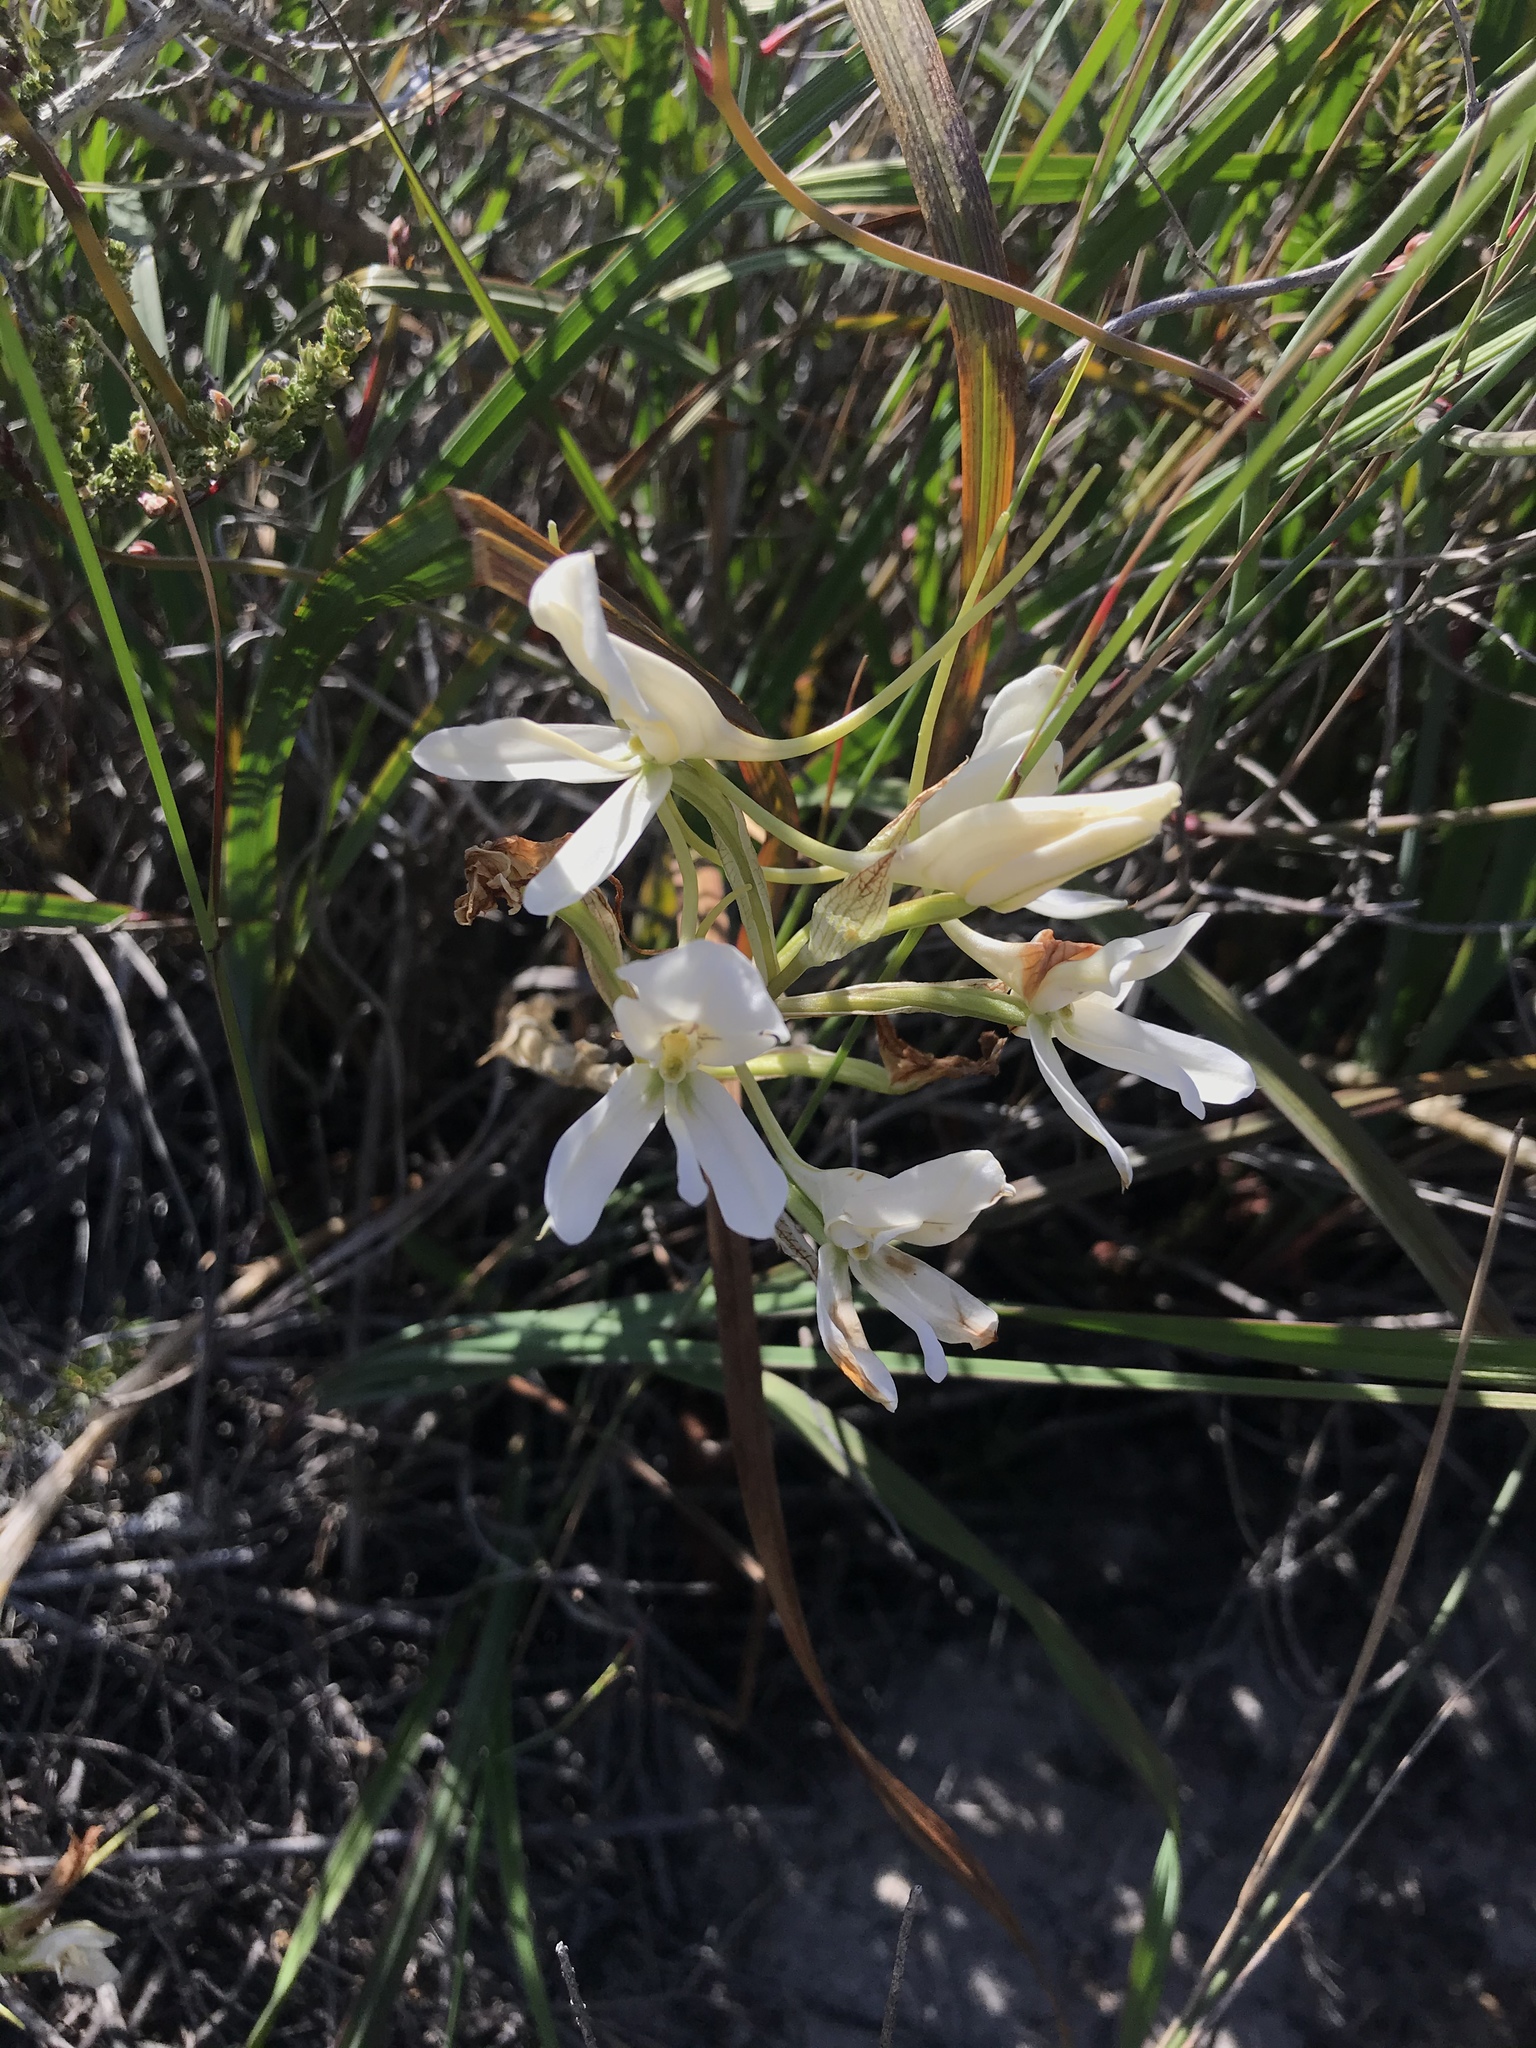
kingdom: Plantae
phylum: Tracheophyta
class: Liliopsida
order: Asparagales
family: Orchidaceae
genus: Disa
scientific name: Disa draconis
